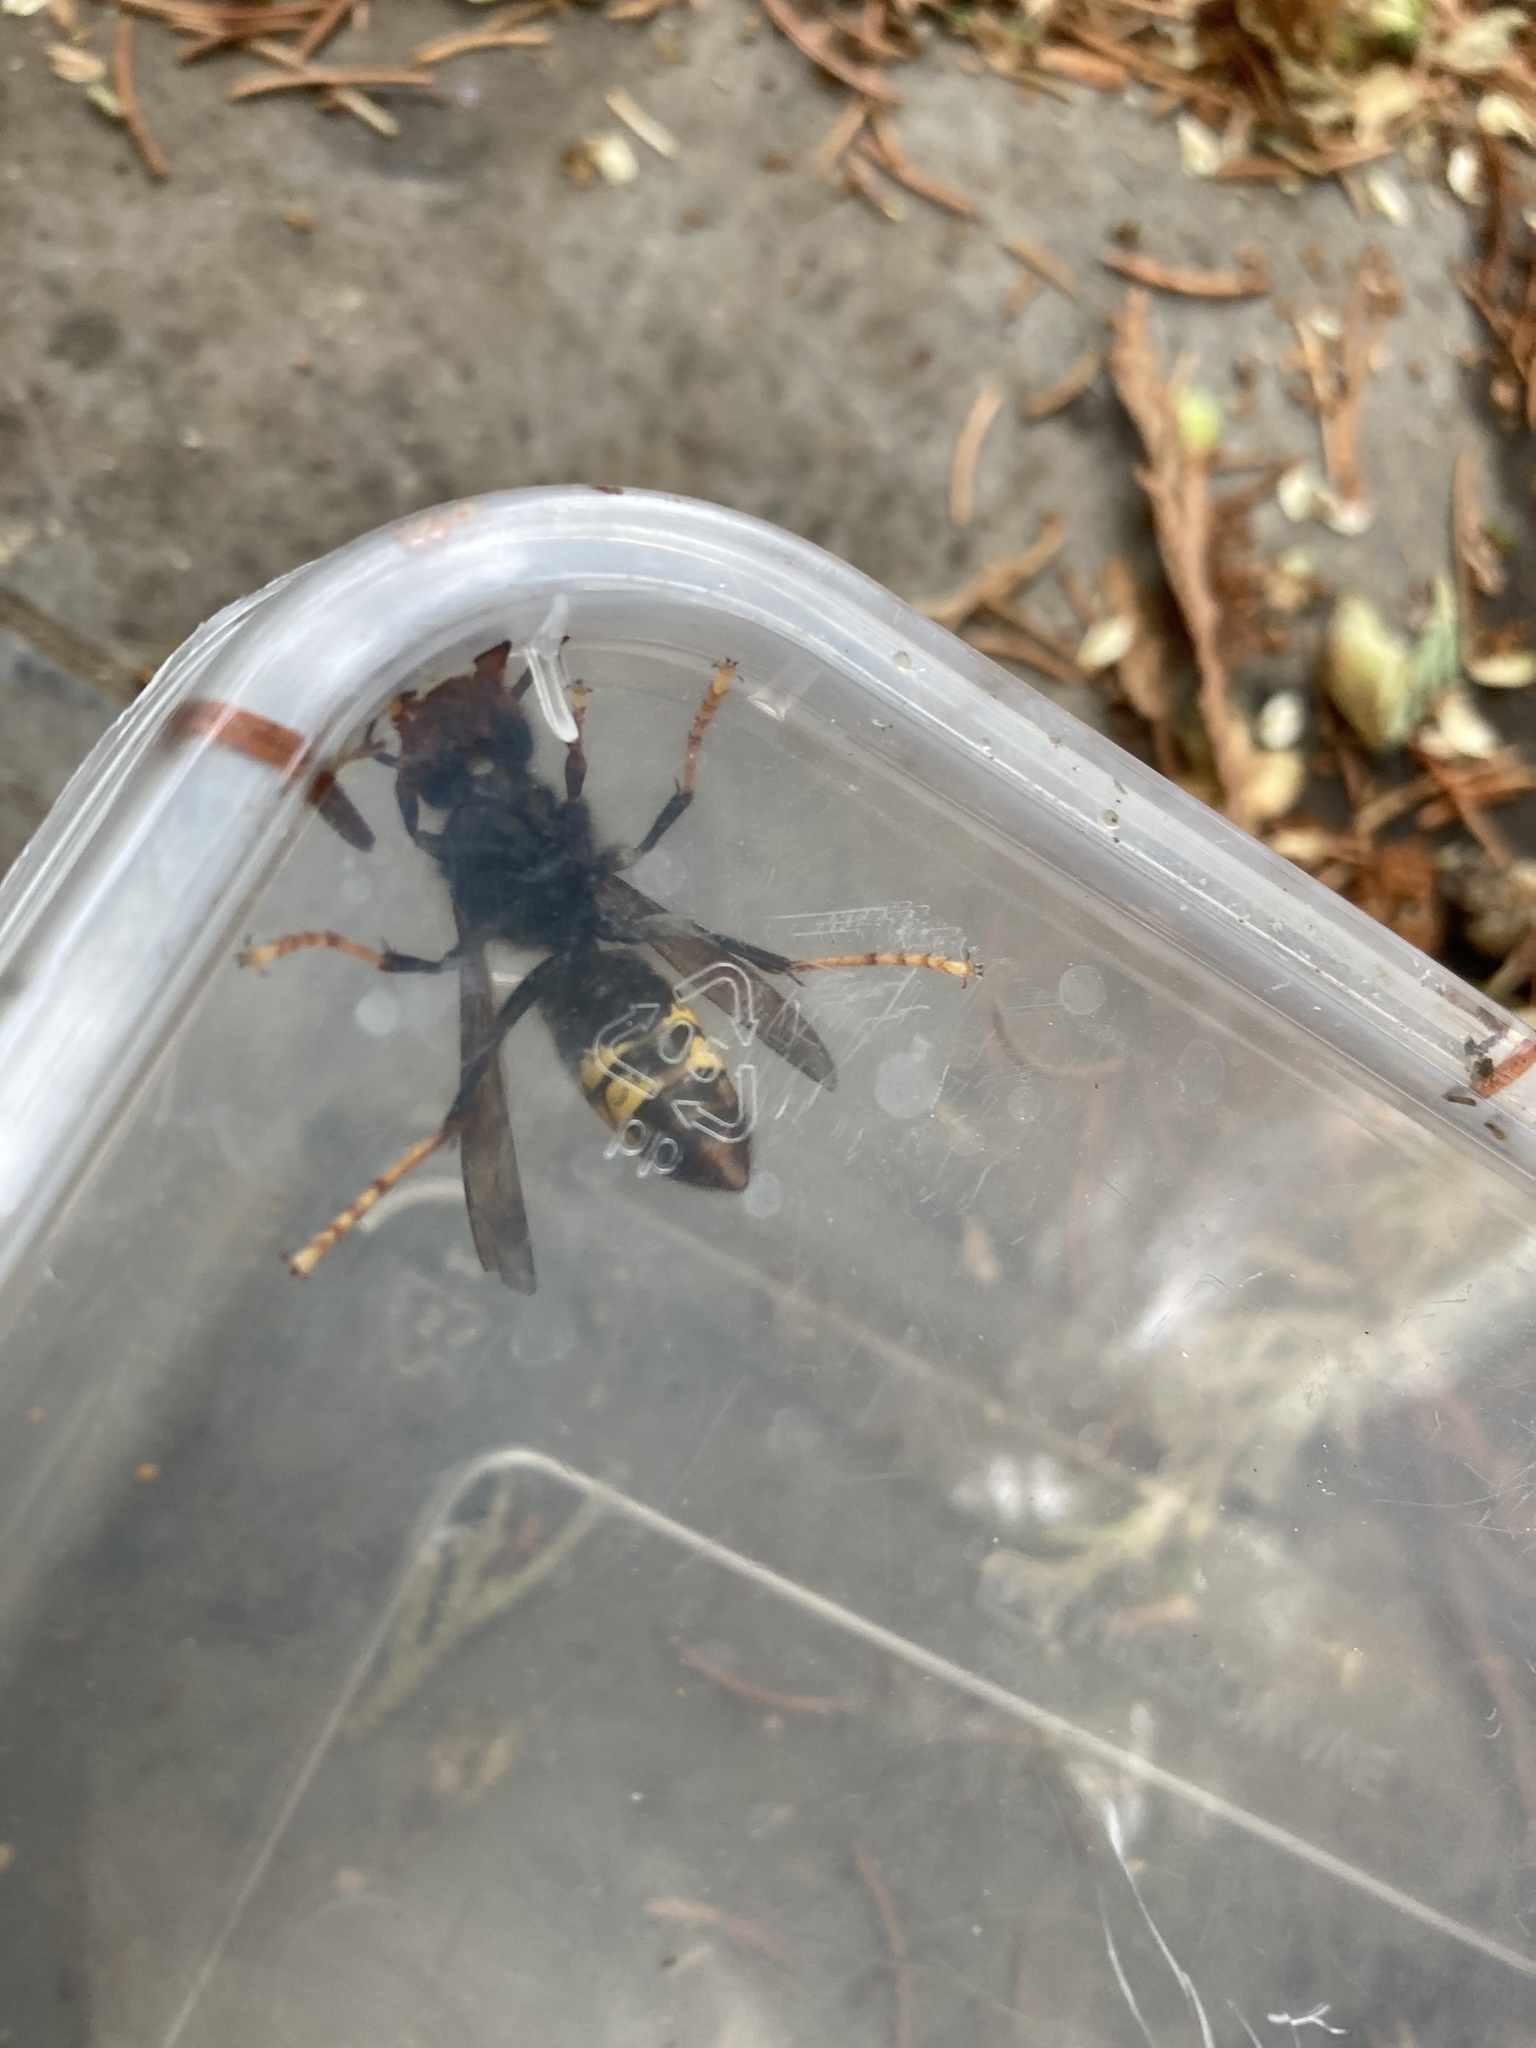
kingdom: Animalia
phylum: Arthropoda
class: Insecta
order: Hymenoptera
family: Vespidae
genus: Vespa
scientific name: Vespa velutina
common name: Asian hornet
